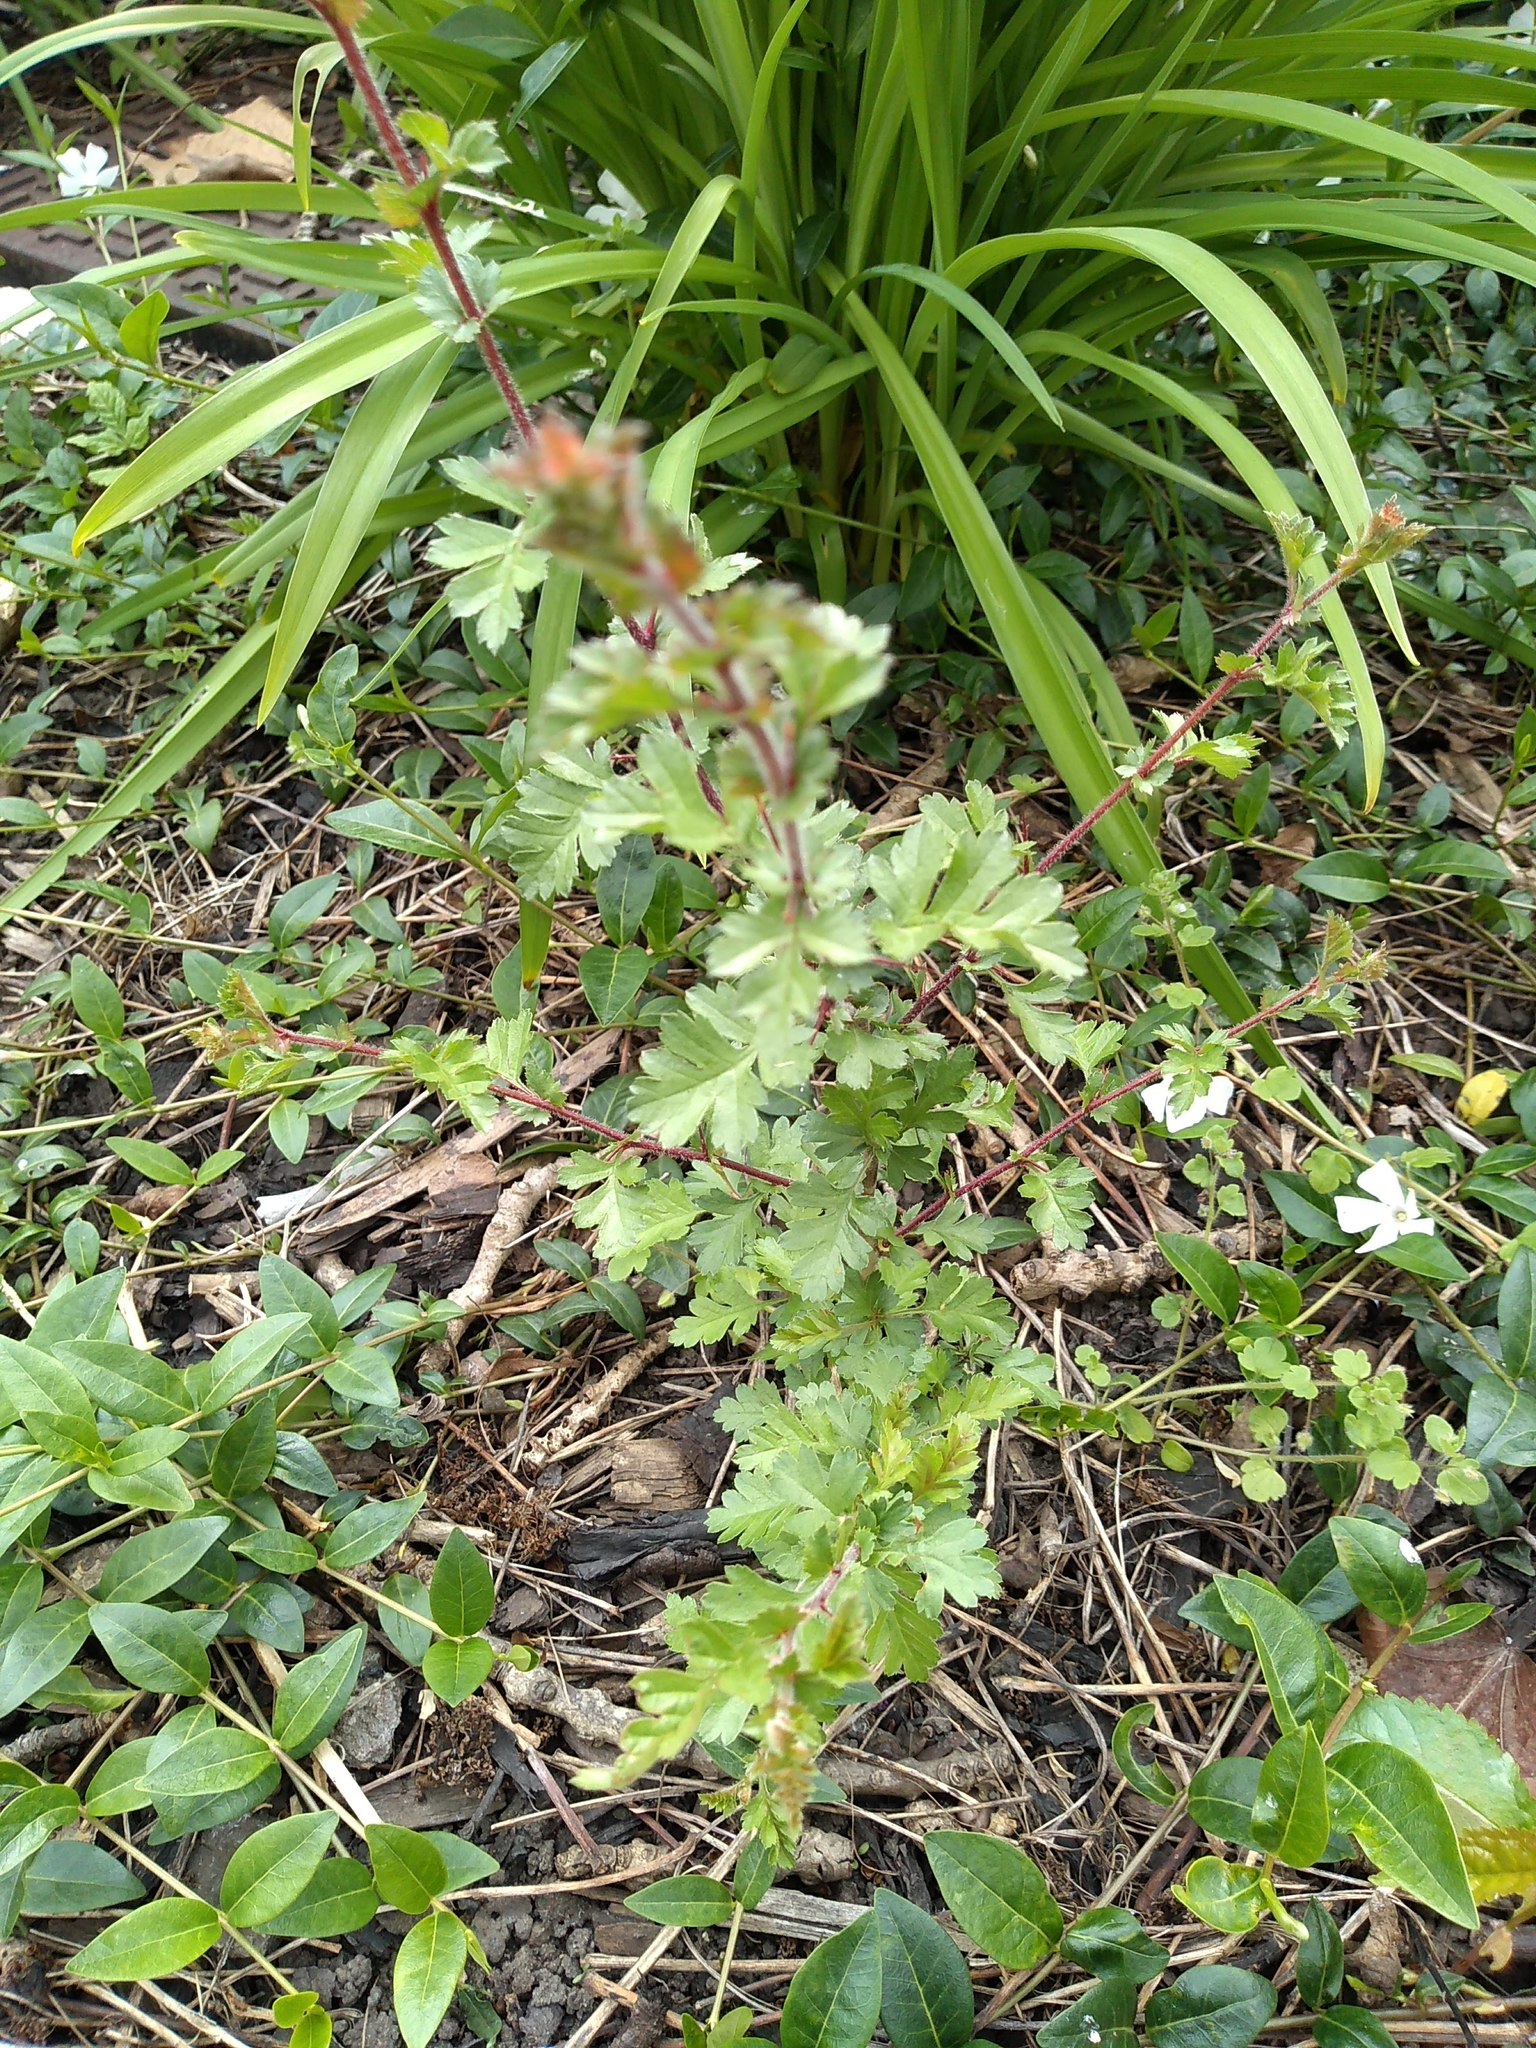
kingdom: Plantae
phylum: Tracheophyta
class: Magnoliopsida
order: Rosales
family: Rosaceae
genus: Crataegus
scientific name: Crataegus monogyna
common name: Hawthorn
